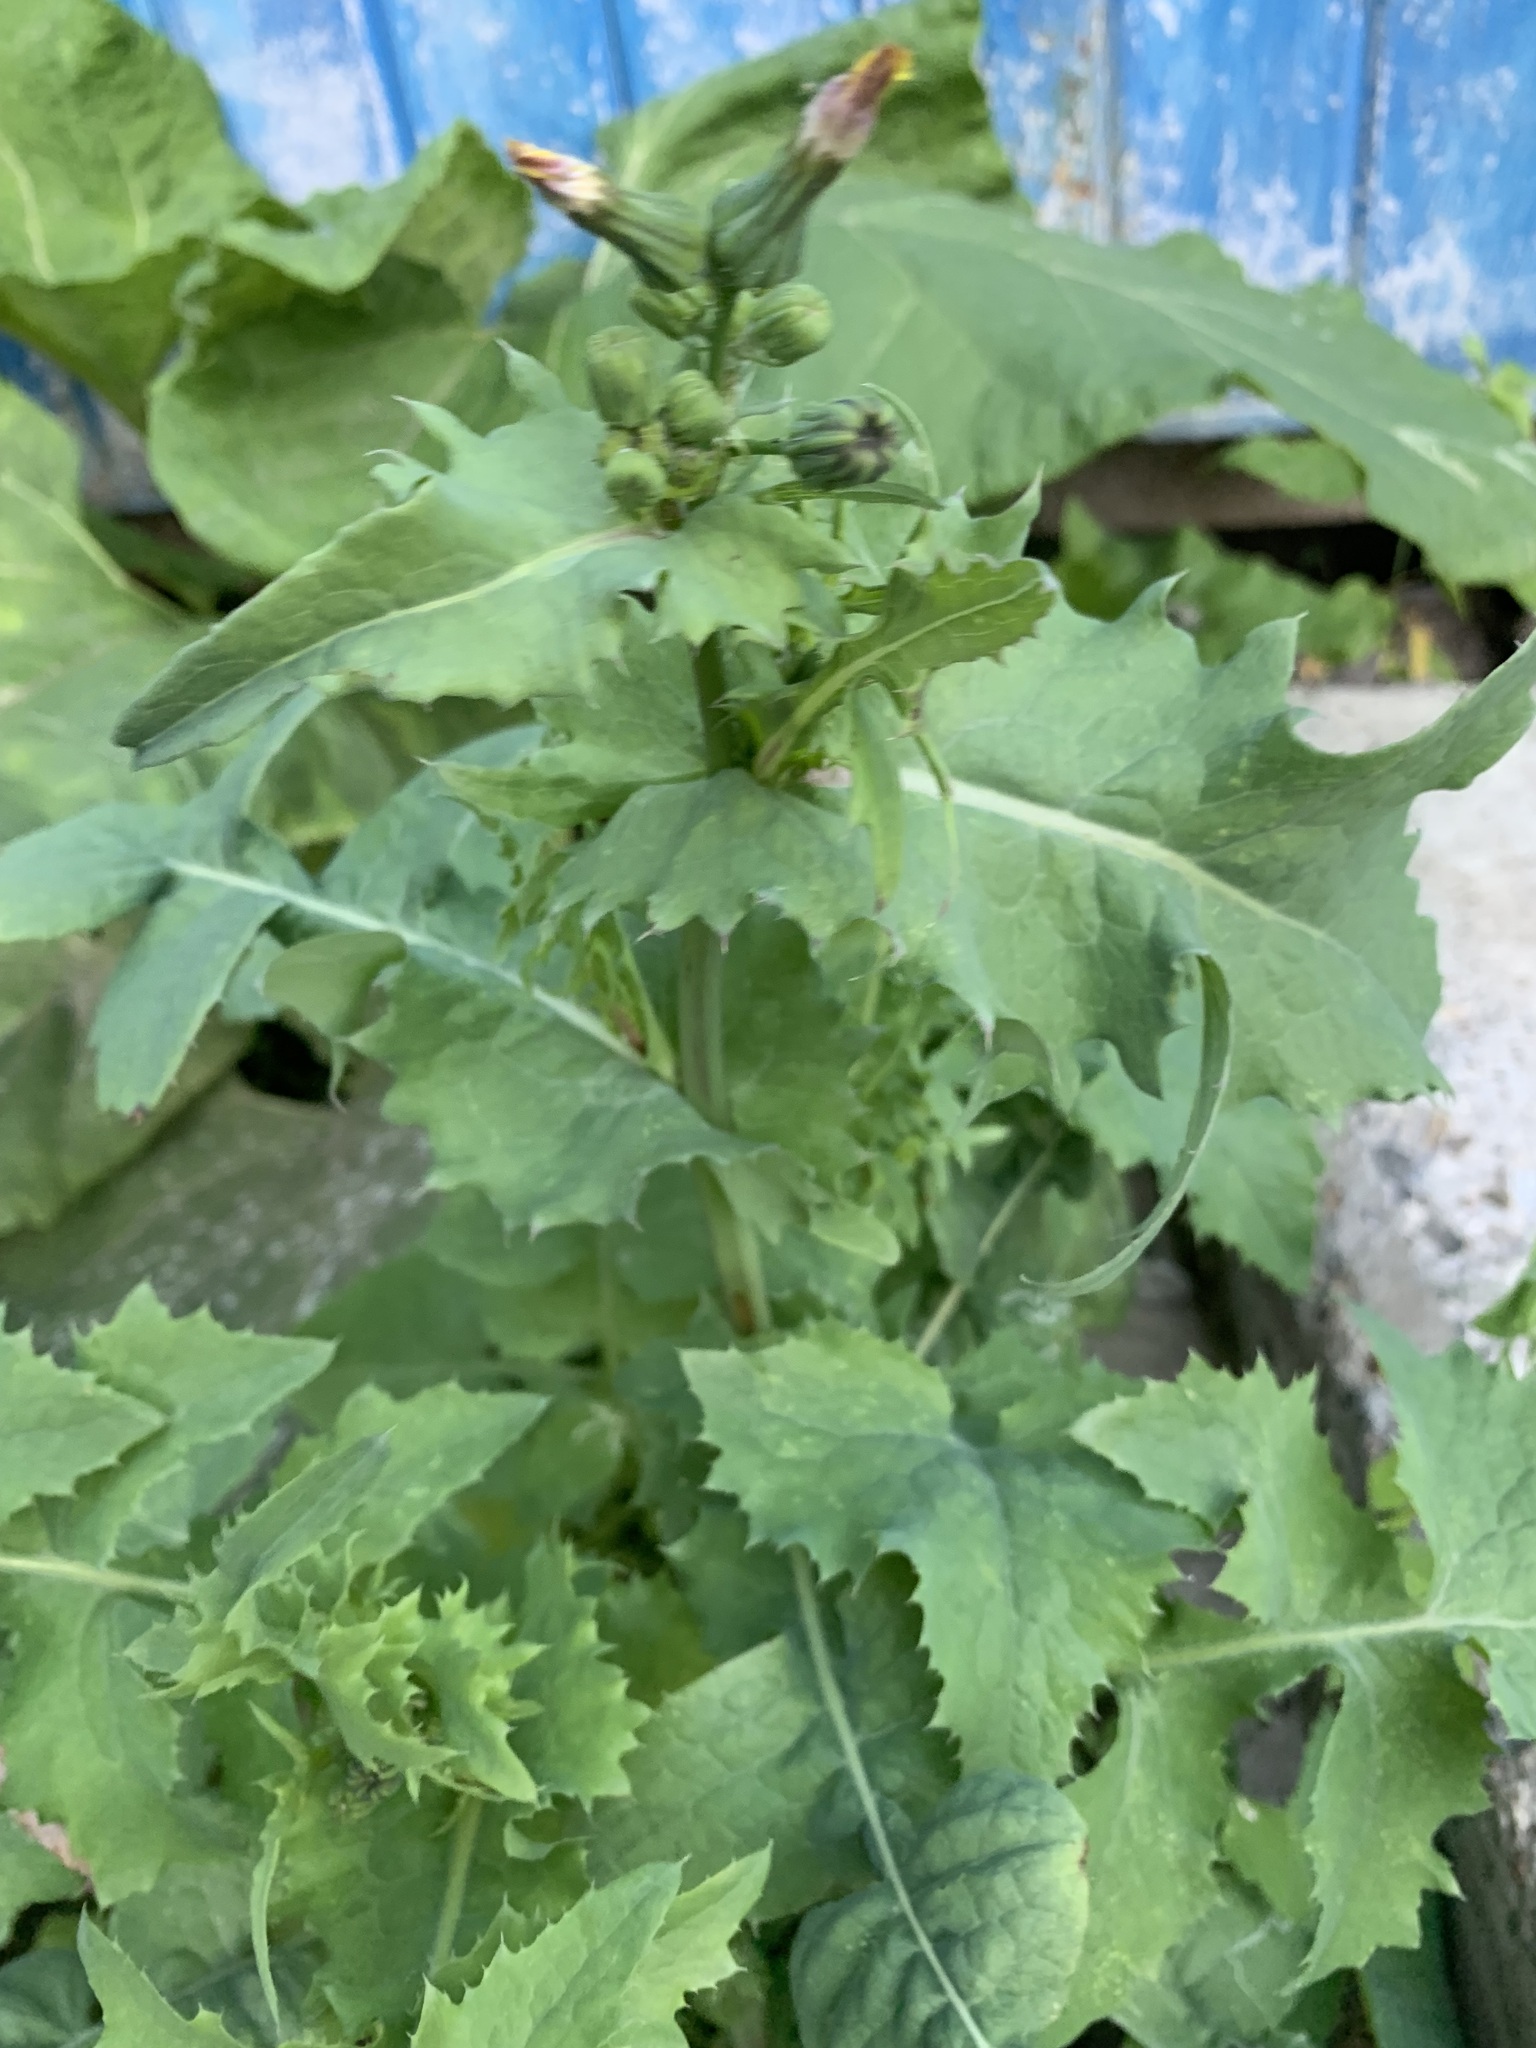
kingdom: Plantae
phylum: Tracheophyta
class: Magnoliopsida
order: Asterales
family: Asteraceae
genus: Sonchus
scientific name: Sonchus oleraceus
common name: Common sowthistle
